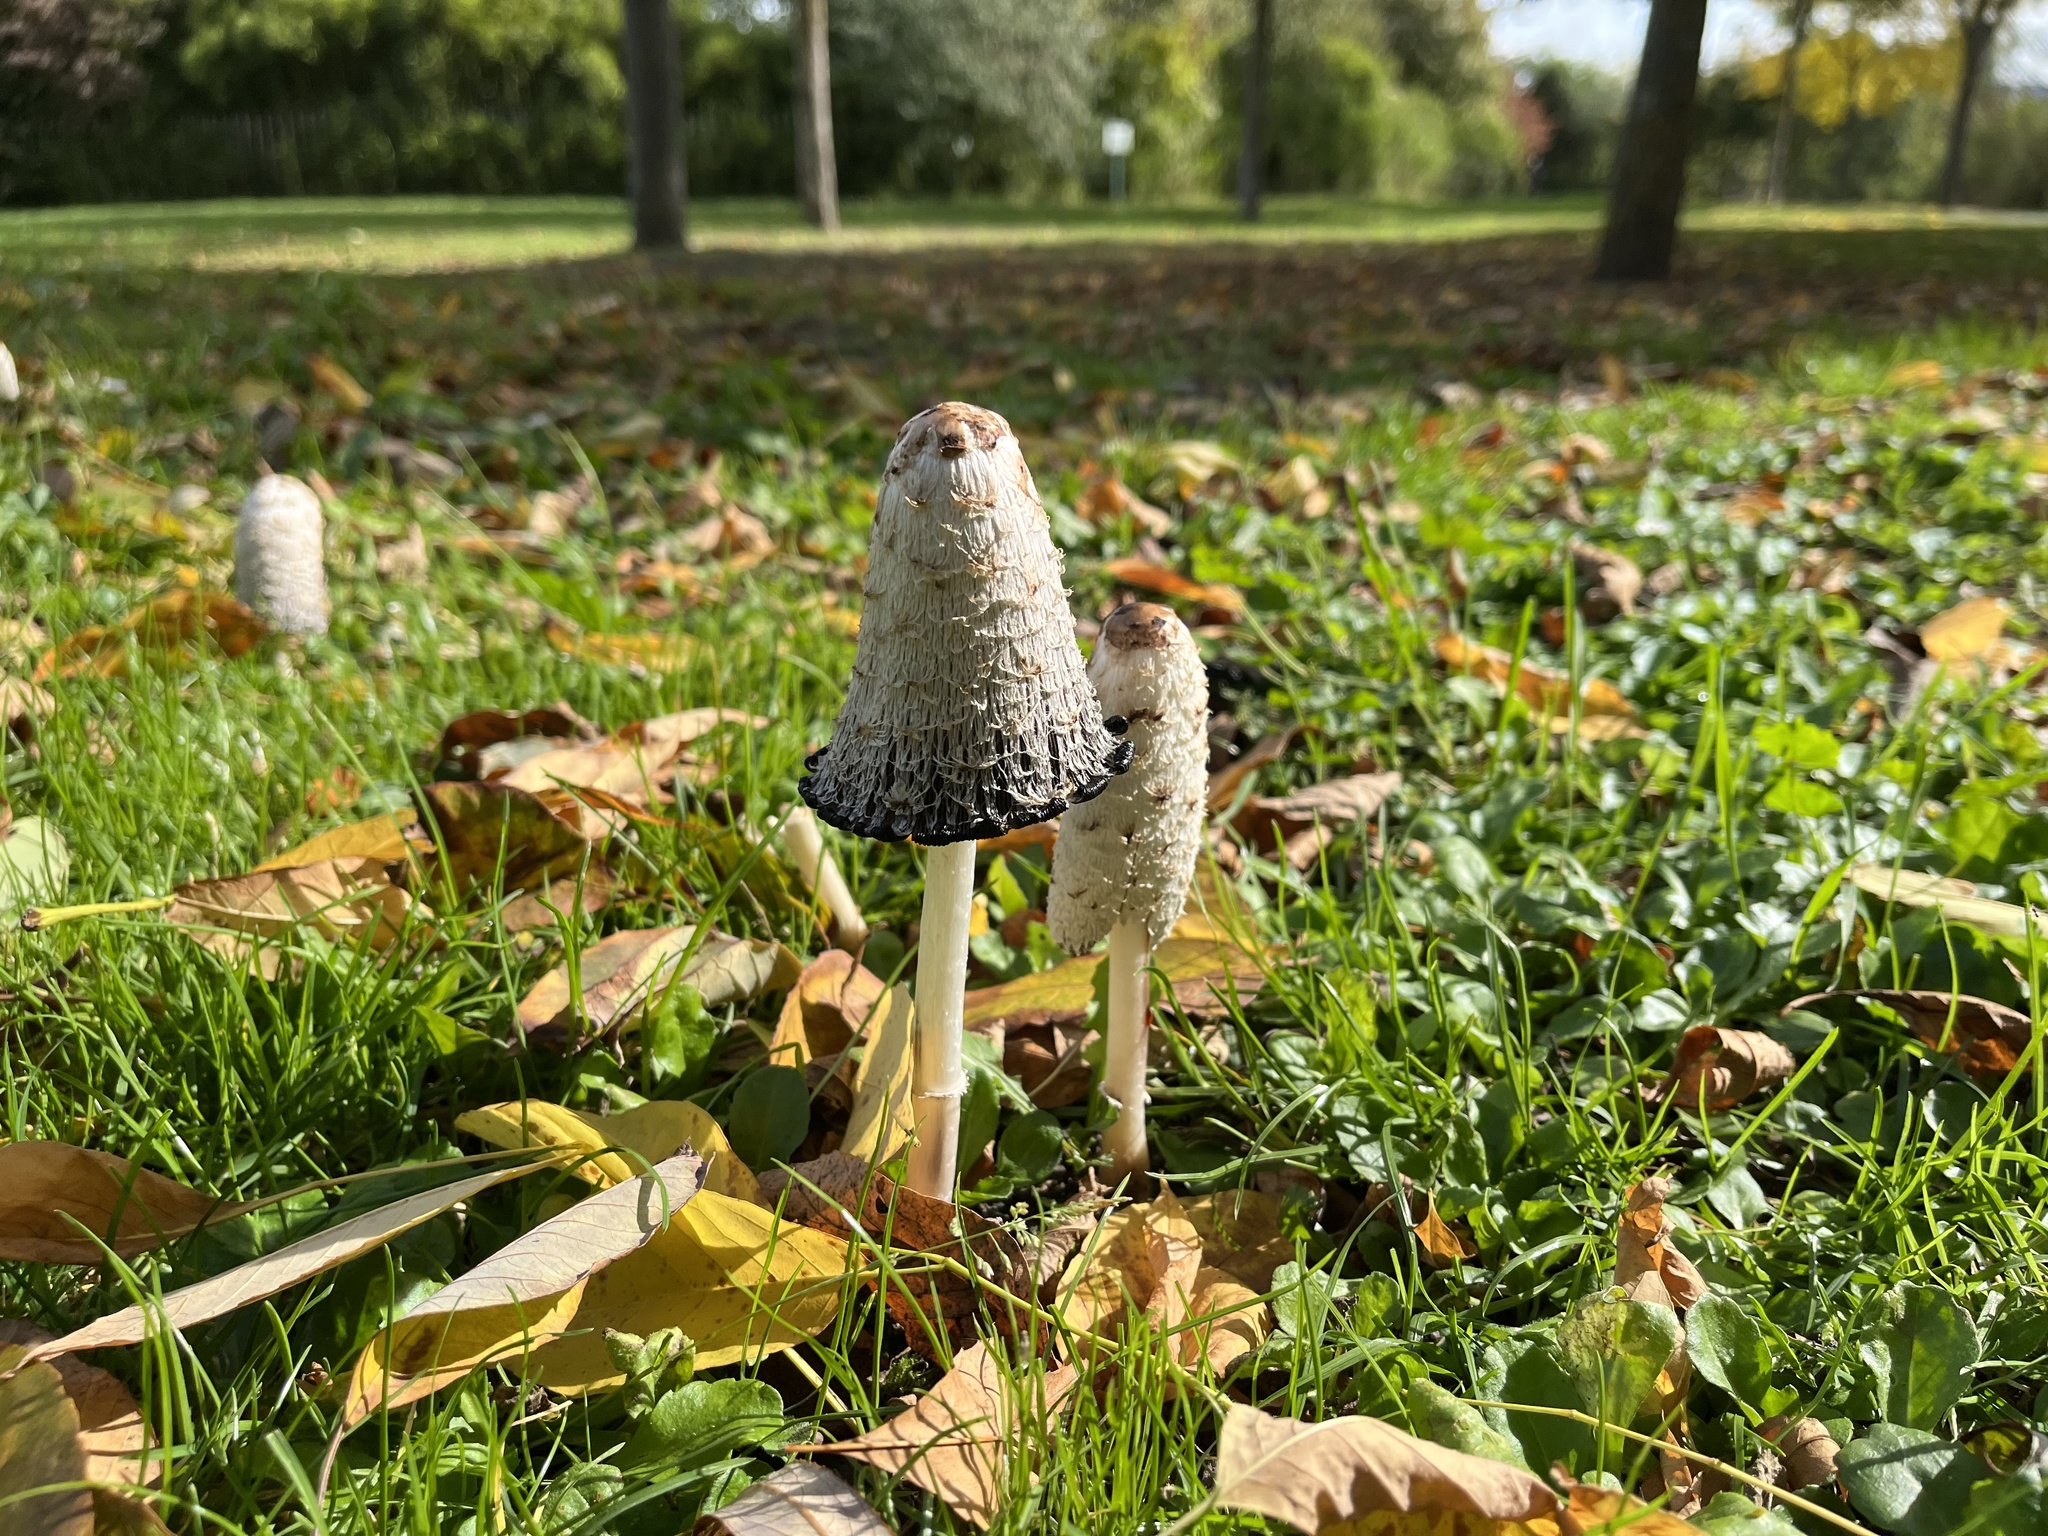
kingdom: Fungi
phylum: Basidiomycota
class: Agaricomycetes
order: Agaricales
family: Agaricaceae
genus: Coprinus
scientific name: Coprinus comatus
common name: Lawyer's wig
